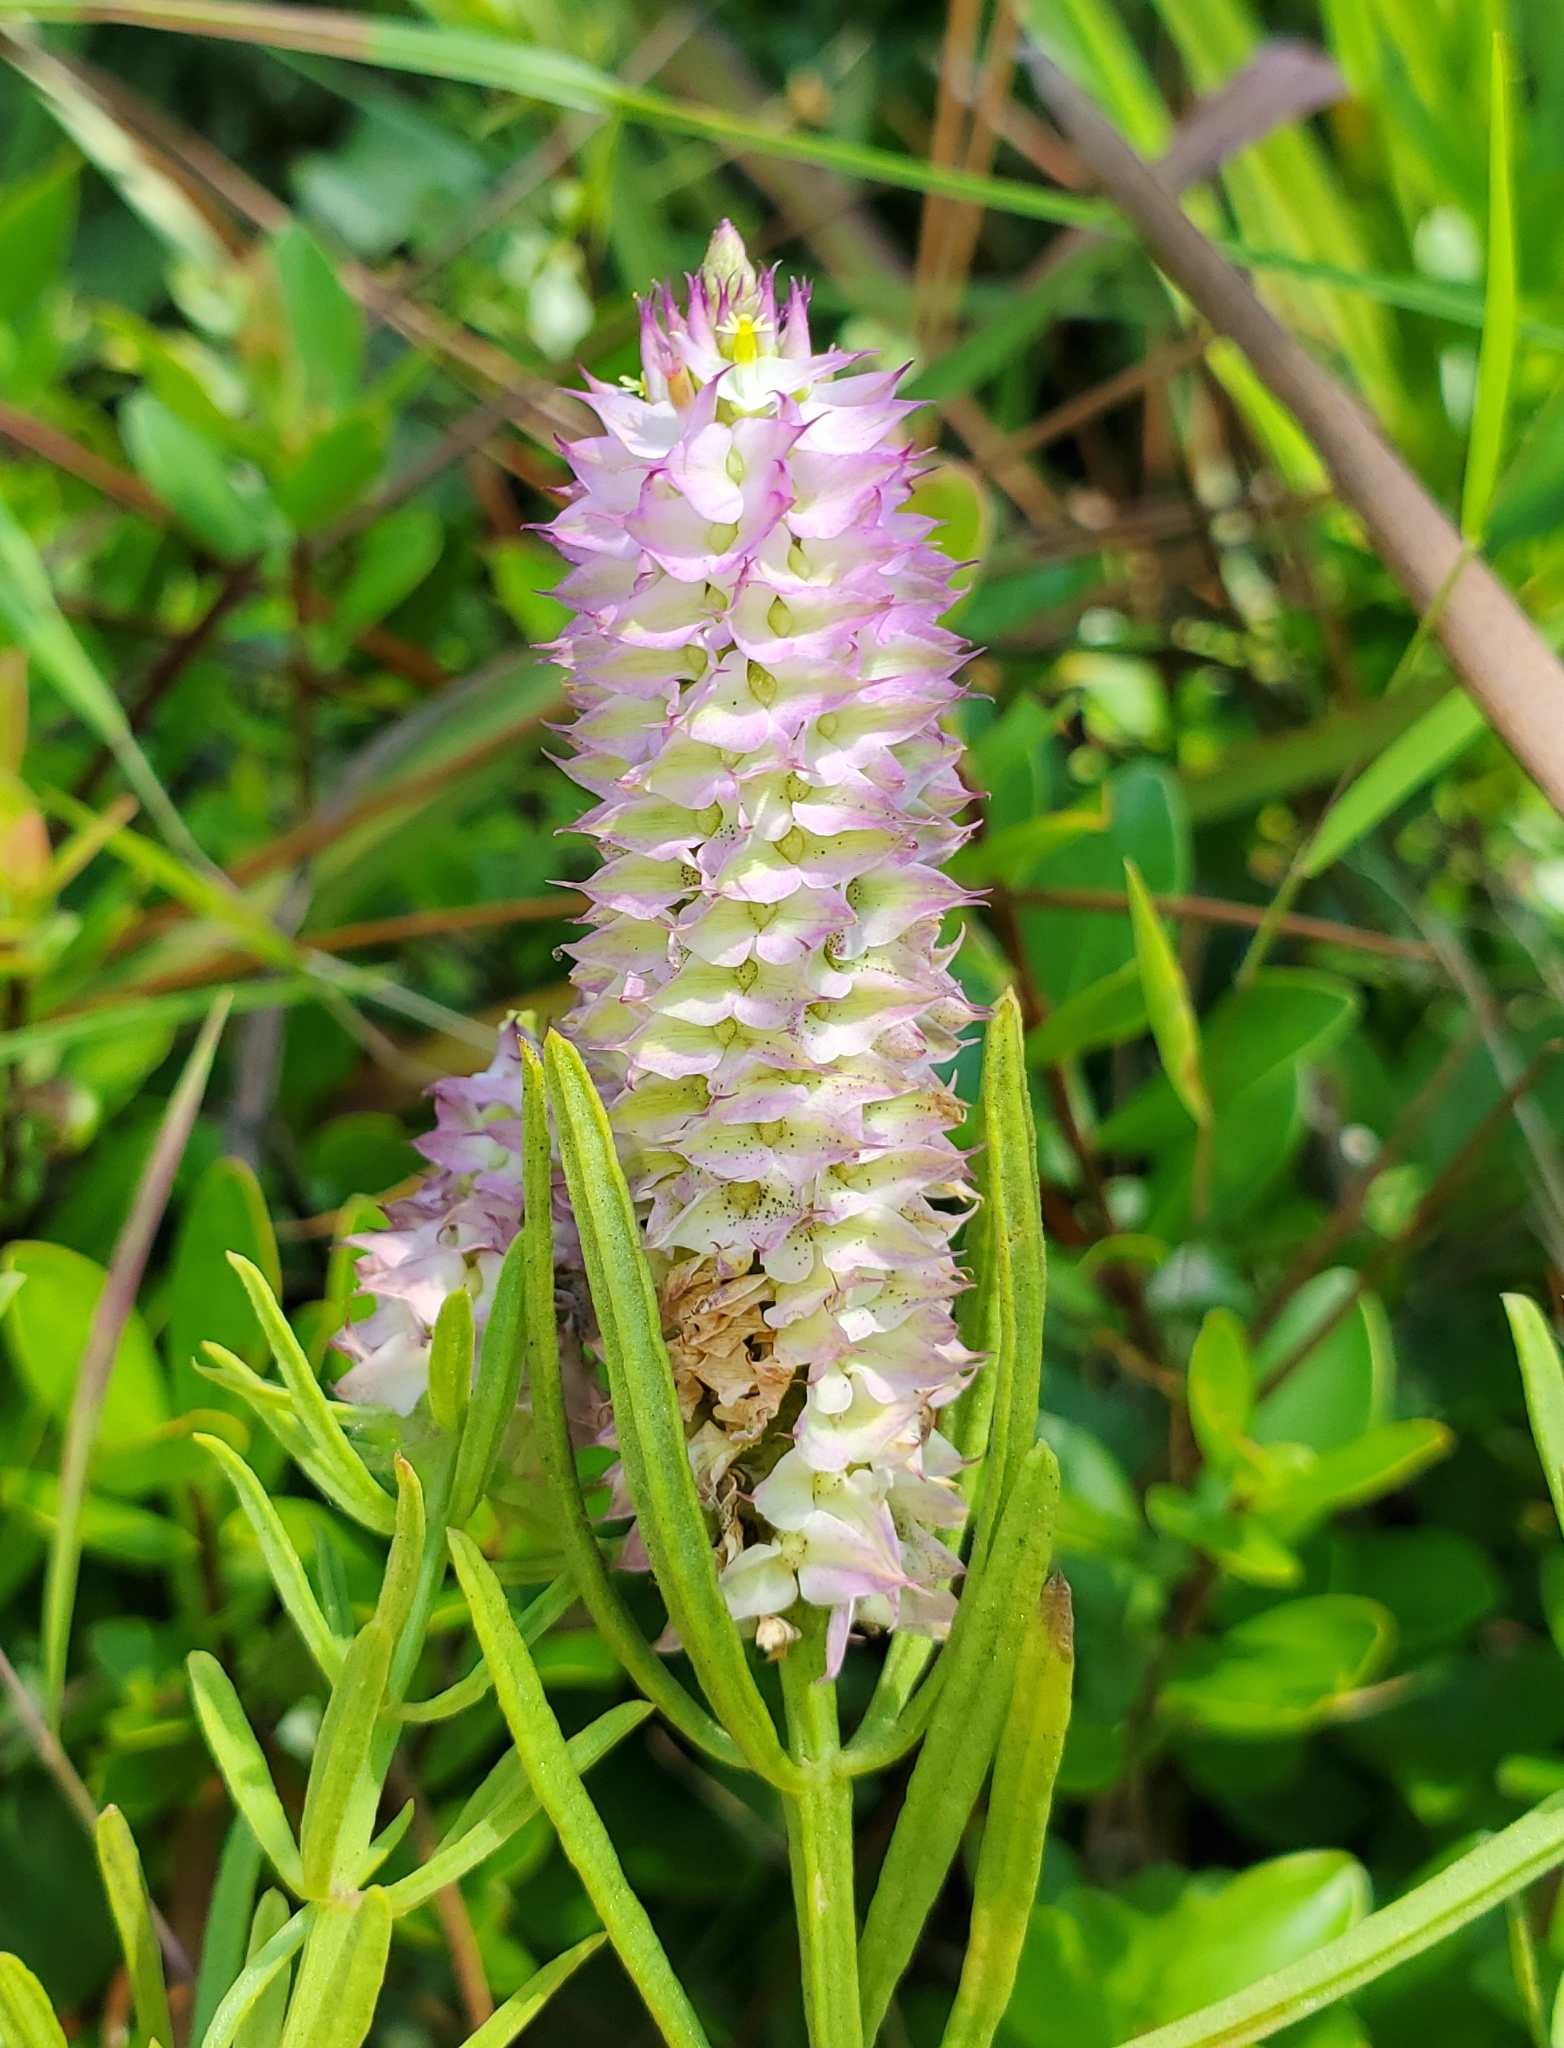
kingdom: Plantae
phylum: Tracheophyta
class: Magnoliopsida
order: Fabales
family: Polygalaceae
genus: Polygala
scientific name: Polygala cruciata
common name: Drumheads
